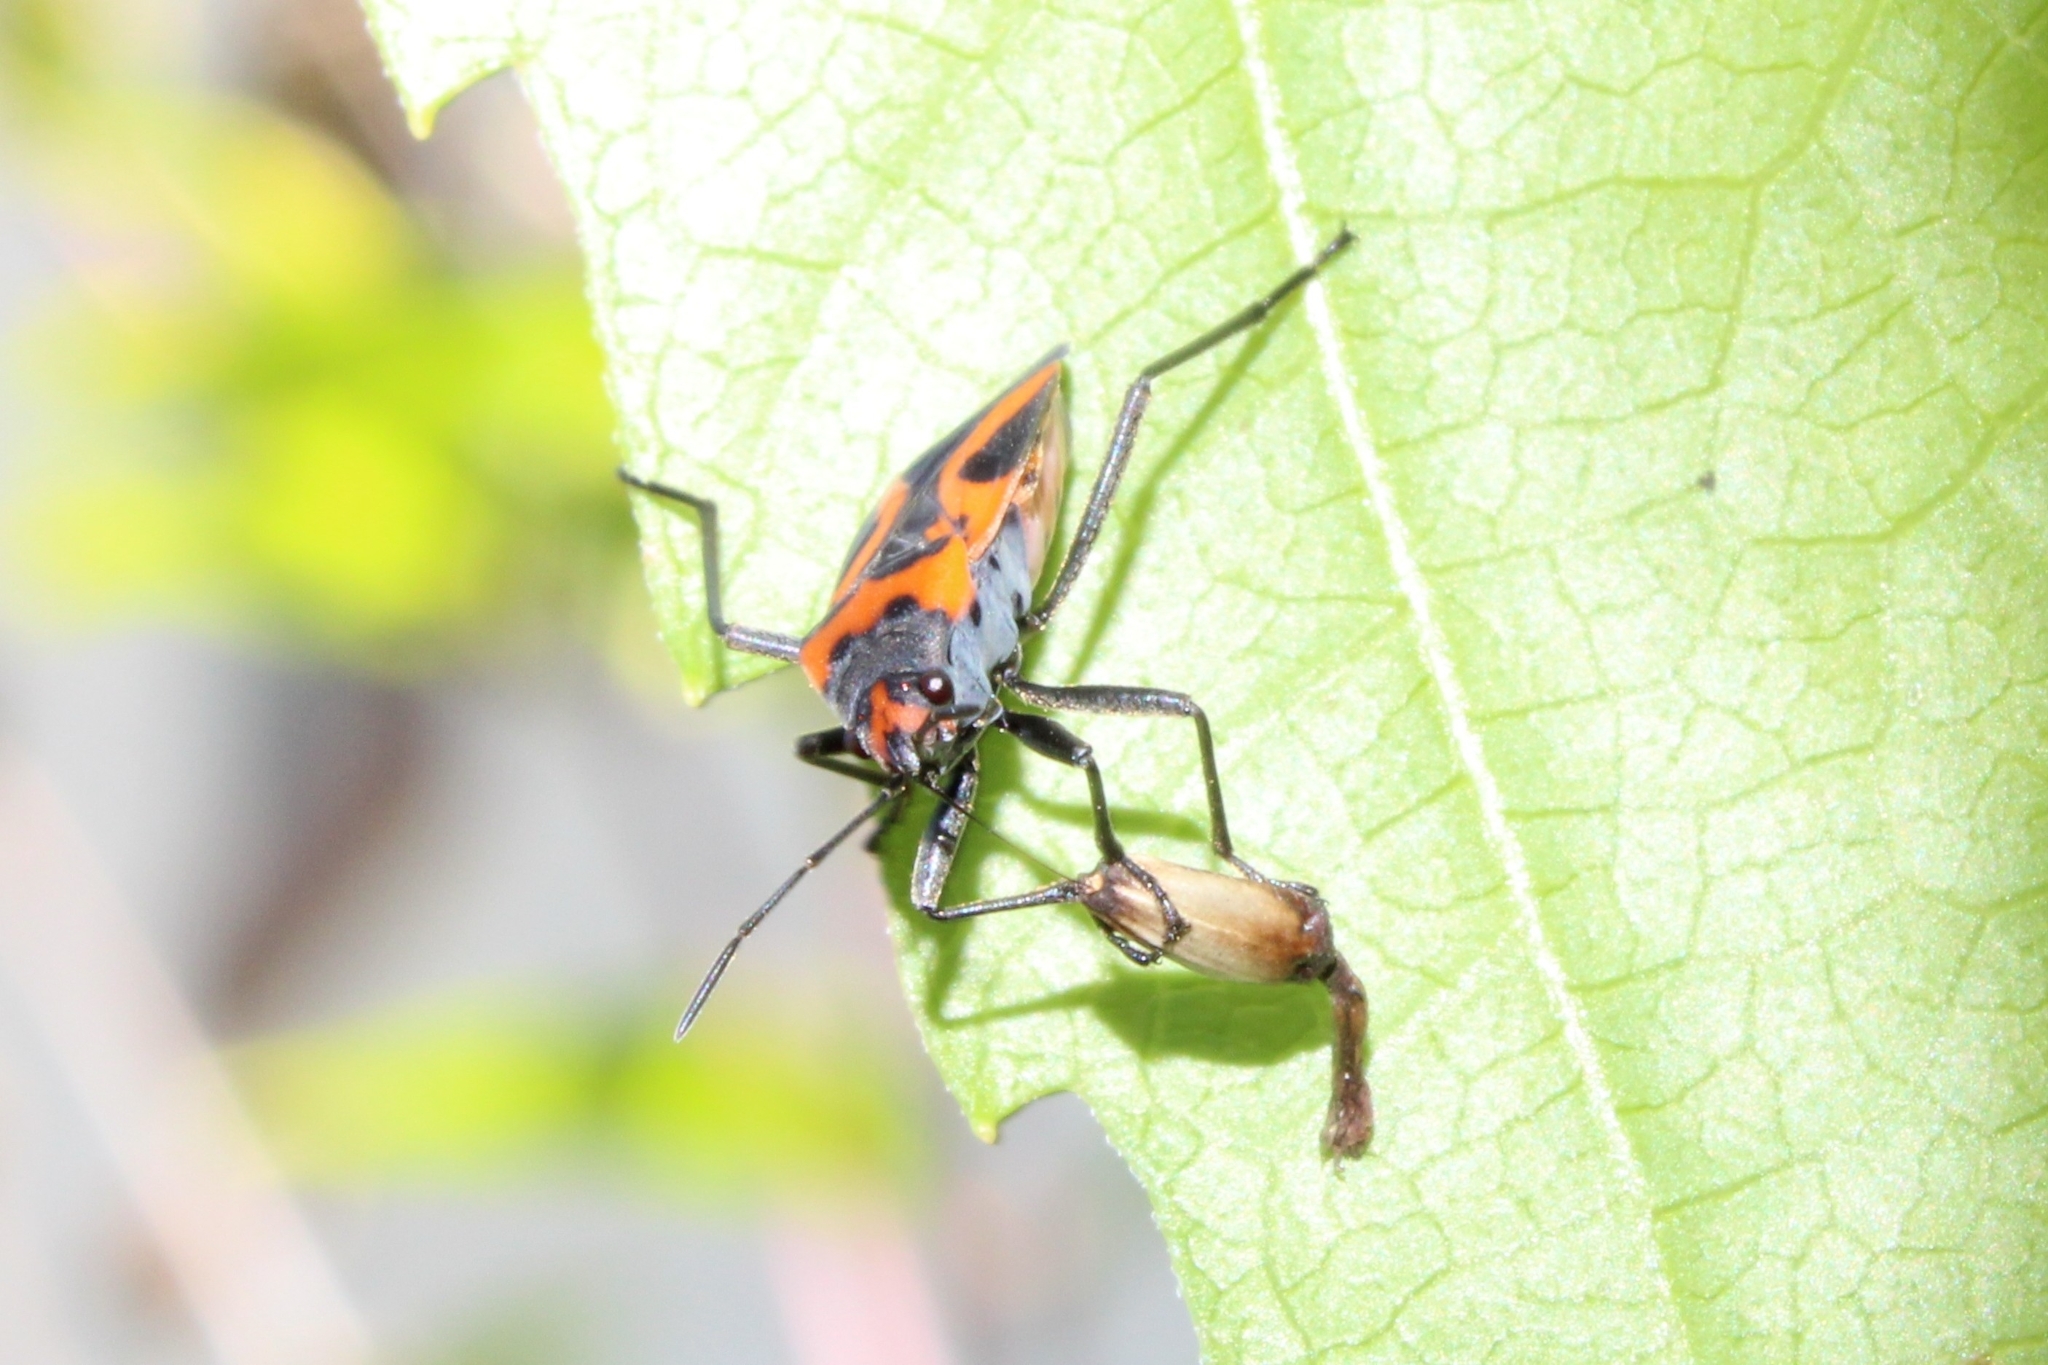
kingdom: Animalia
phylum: Arthropoda
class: Insecta
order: Hemiptera
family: Lygaeidae
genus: Lygaeus
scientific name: Lygaeus turcicus
